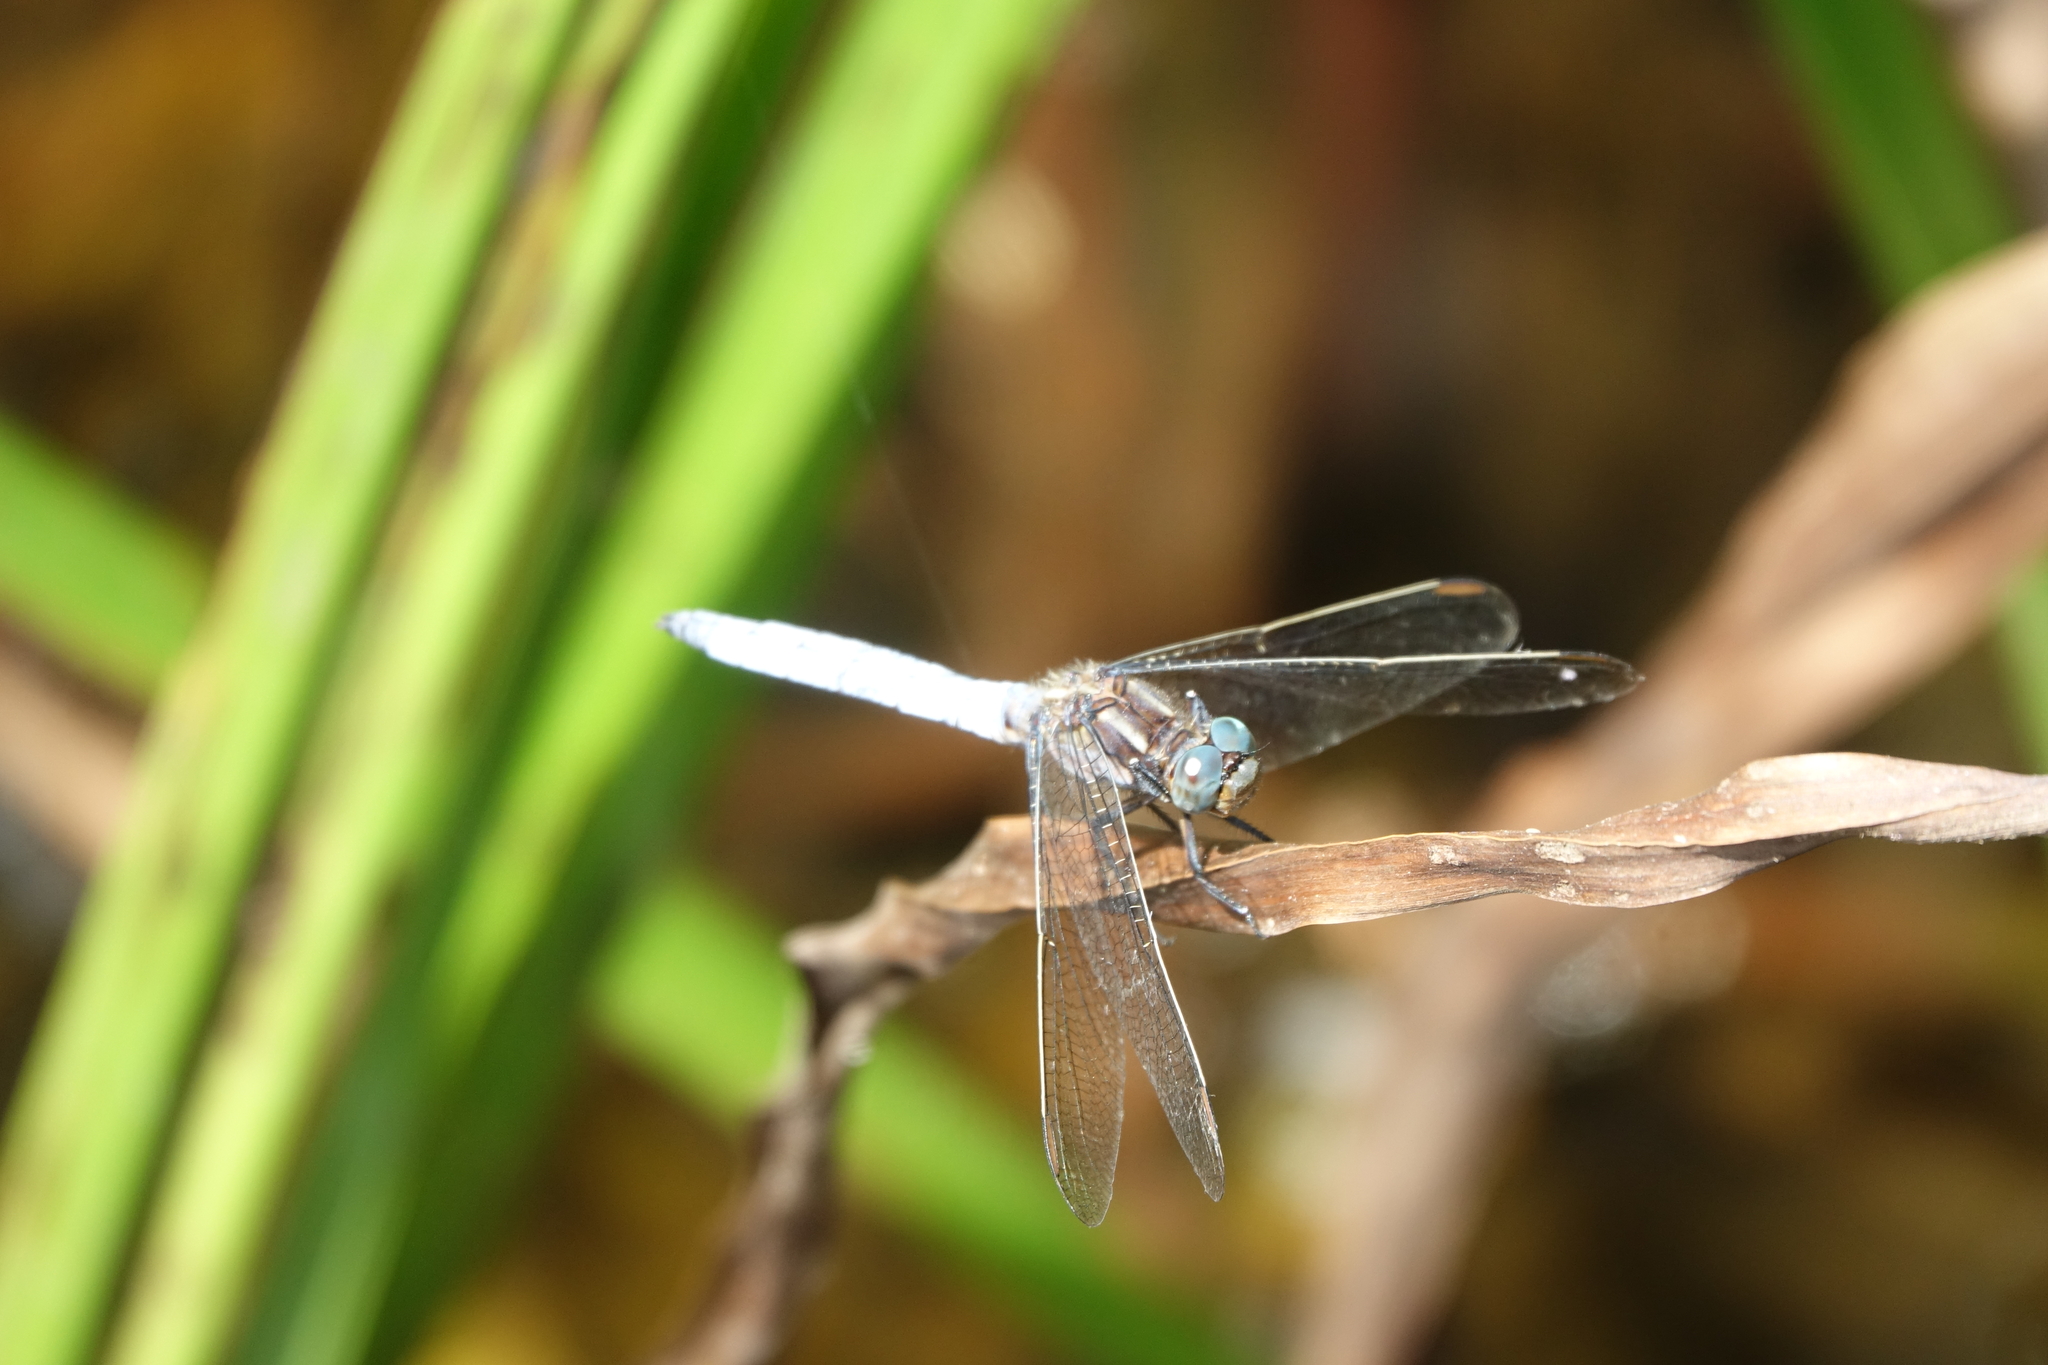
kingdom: Animalia
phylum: Arthropoda
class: Insecta
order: Odonata
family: Libellulidae
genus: Orthetrum
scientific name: Orthetrum coerulescens
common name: Keeled skimmer
